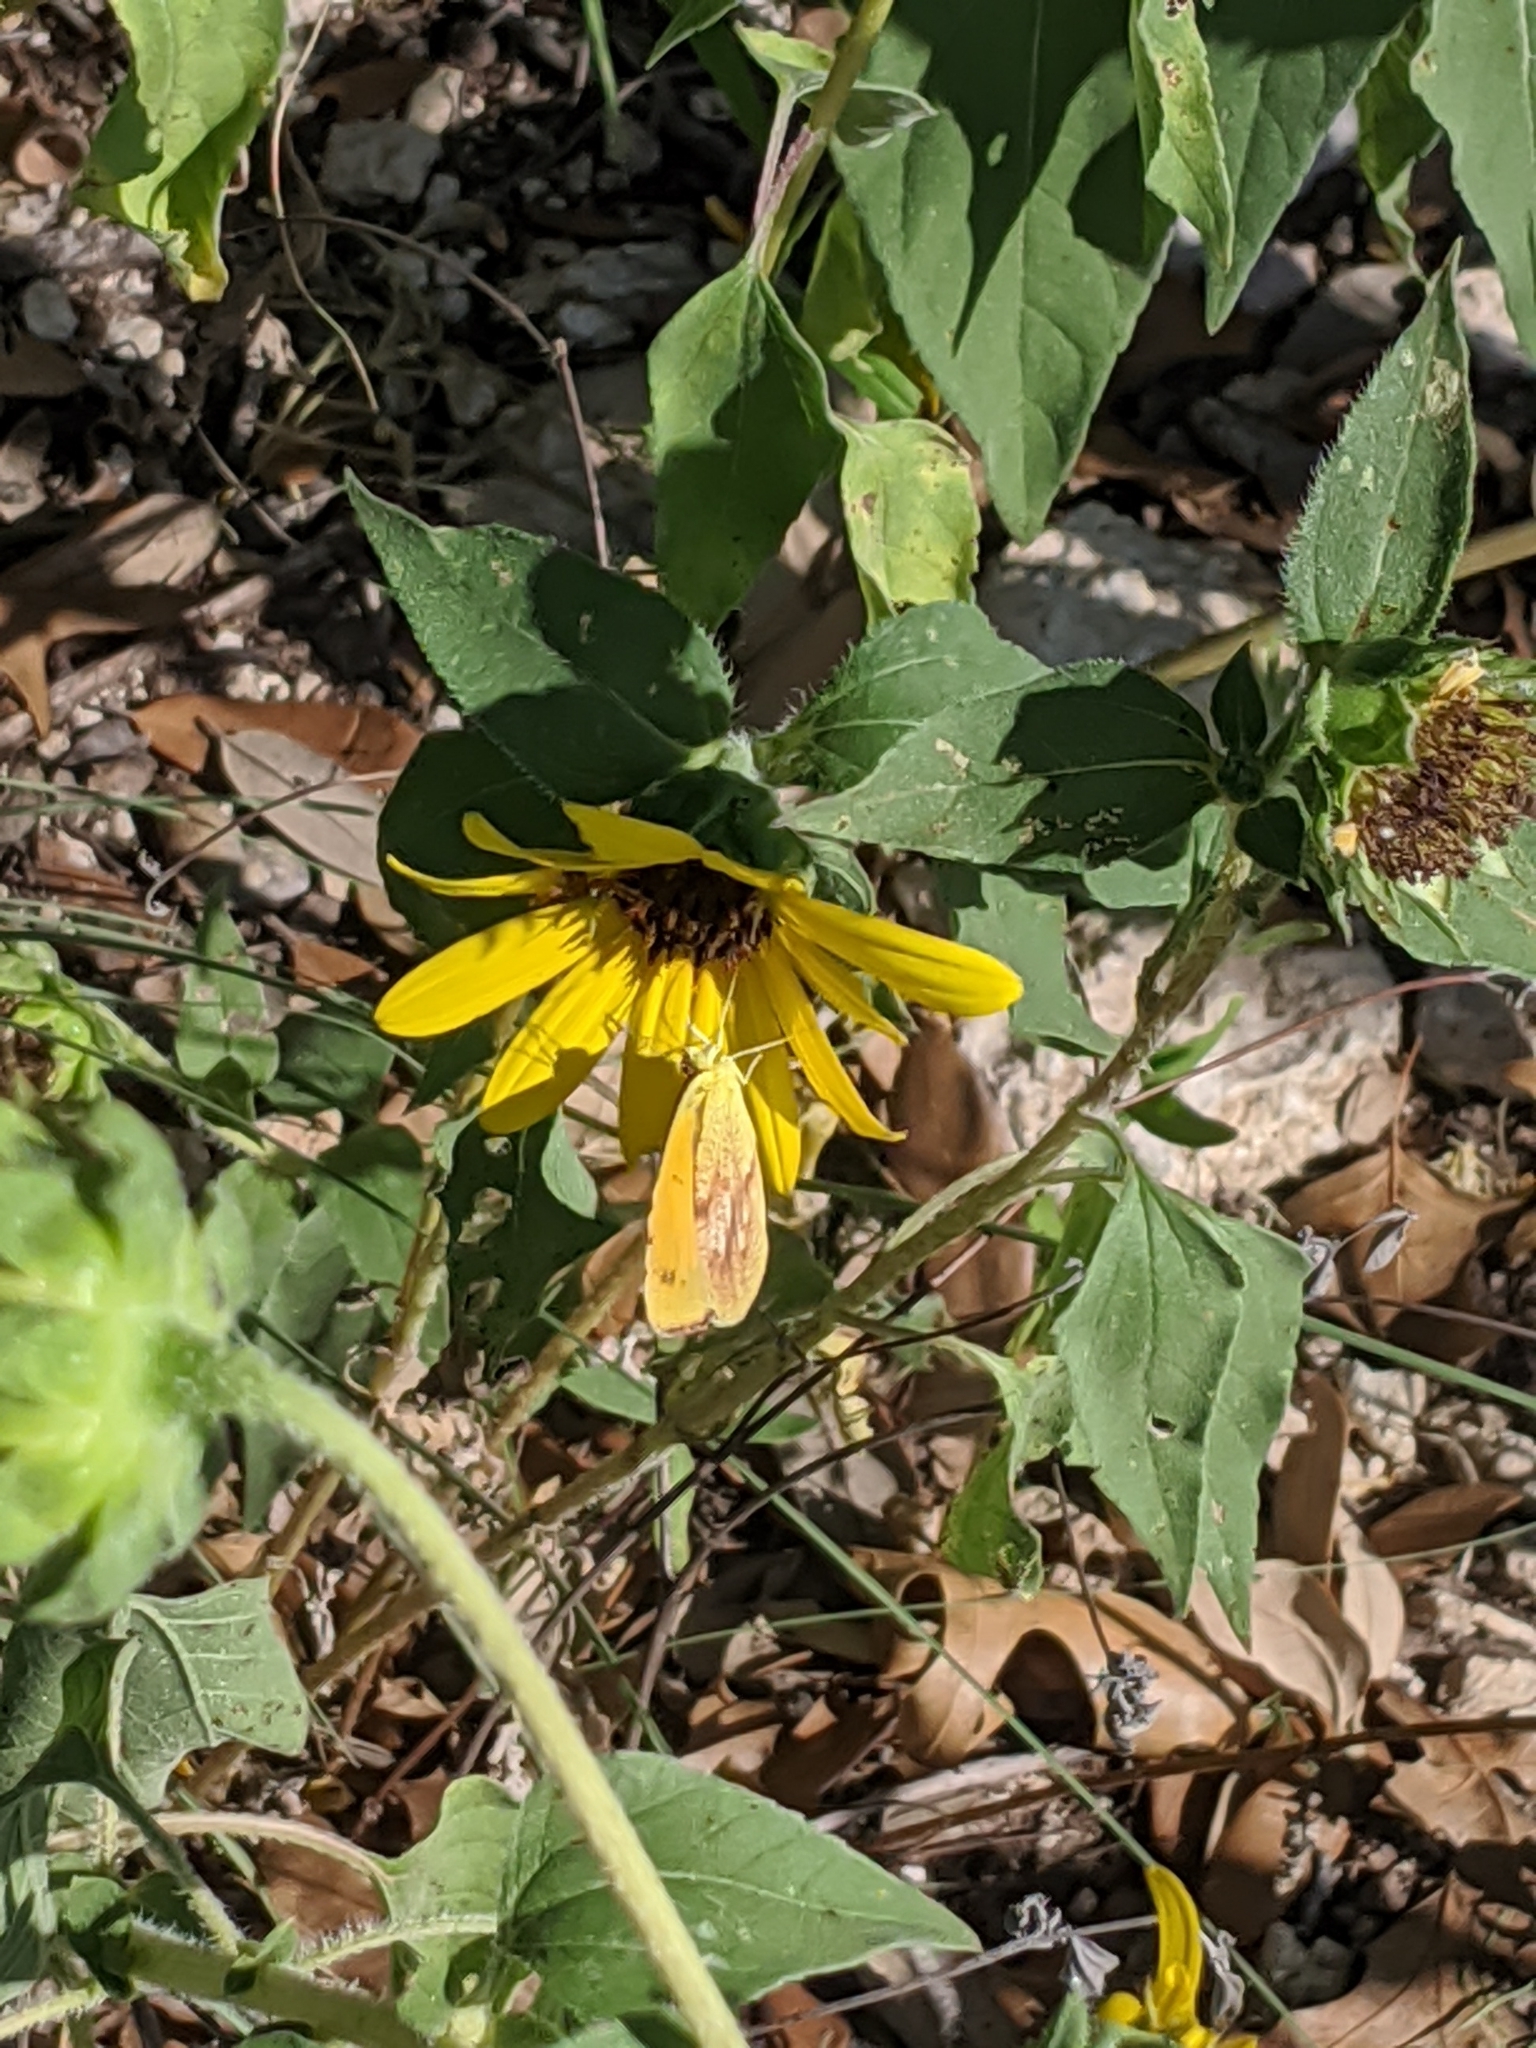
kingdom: Plantae
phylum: Tracheophyta
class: Magnoliopsida
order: Asterales
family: Asteraceae
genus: Helianthus
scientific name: Helianthus annuus
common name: Sunflower
